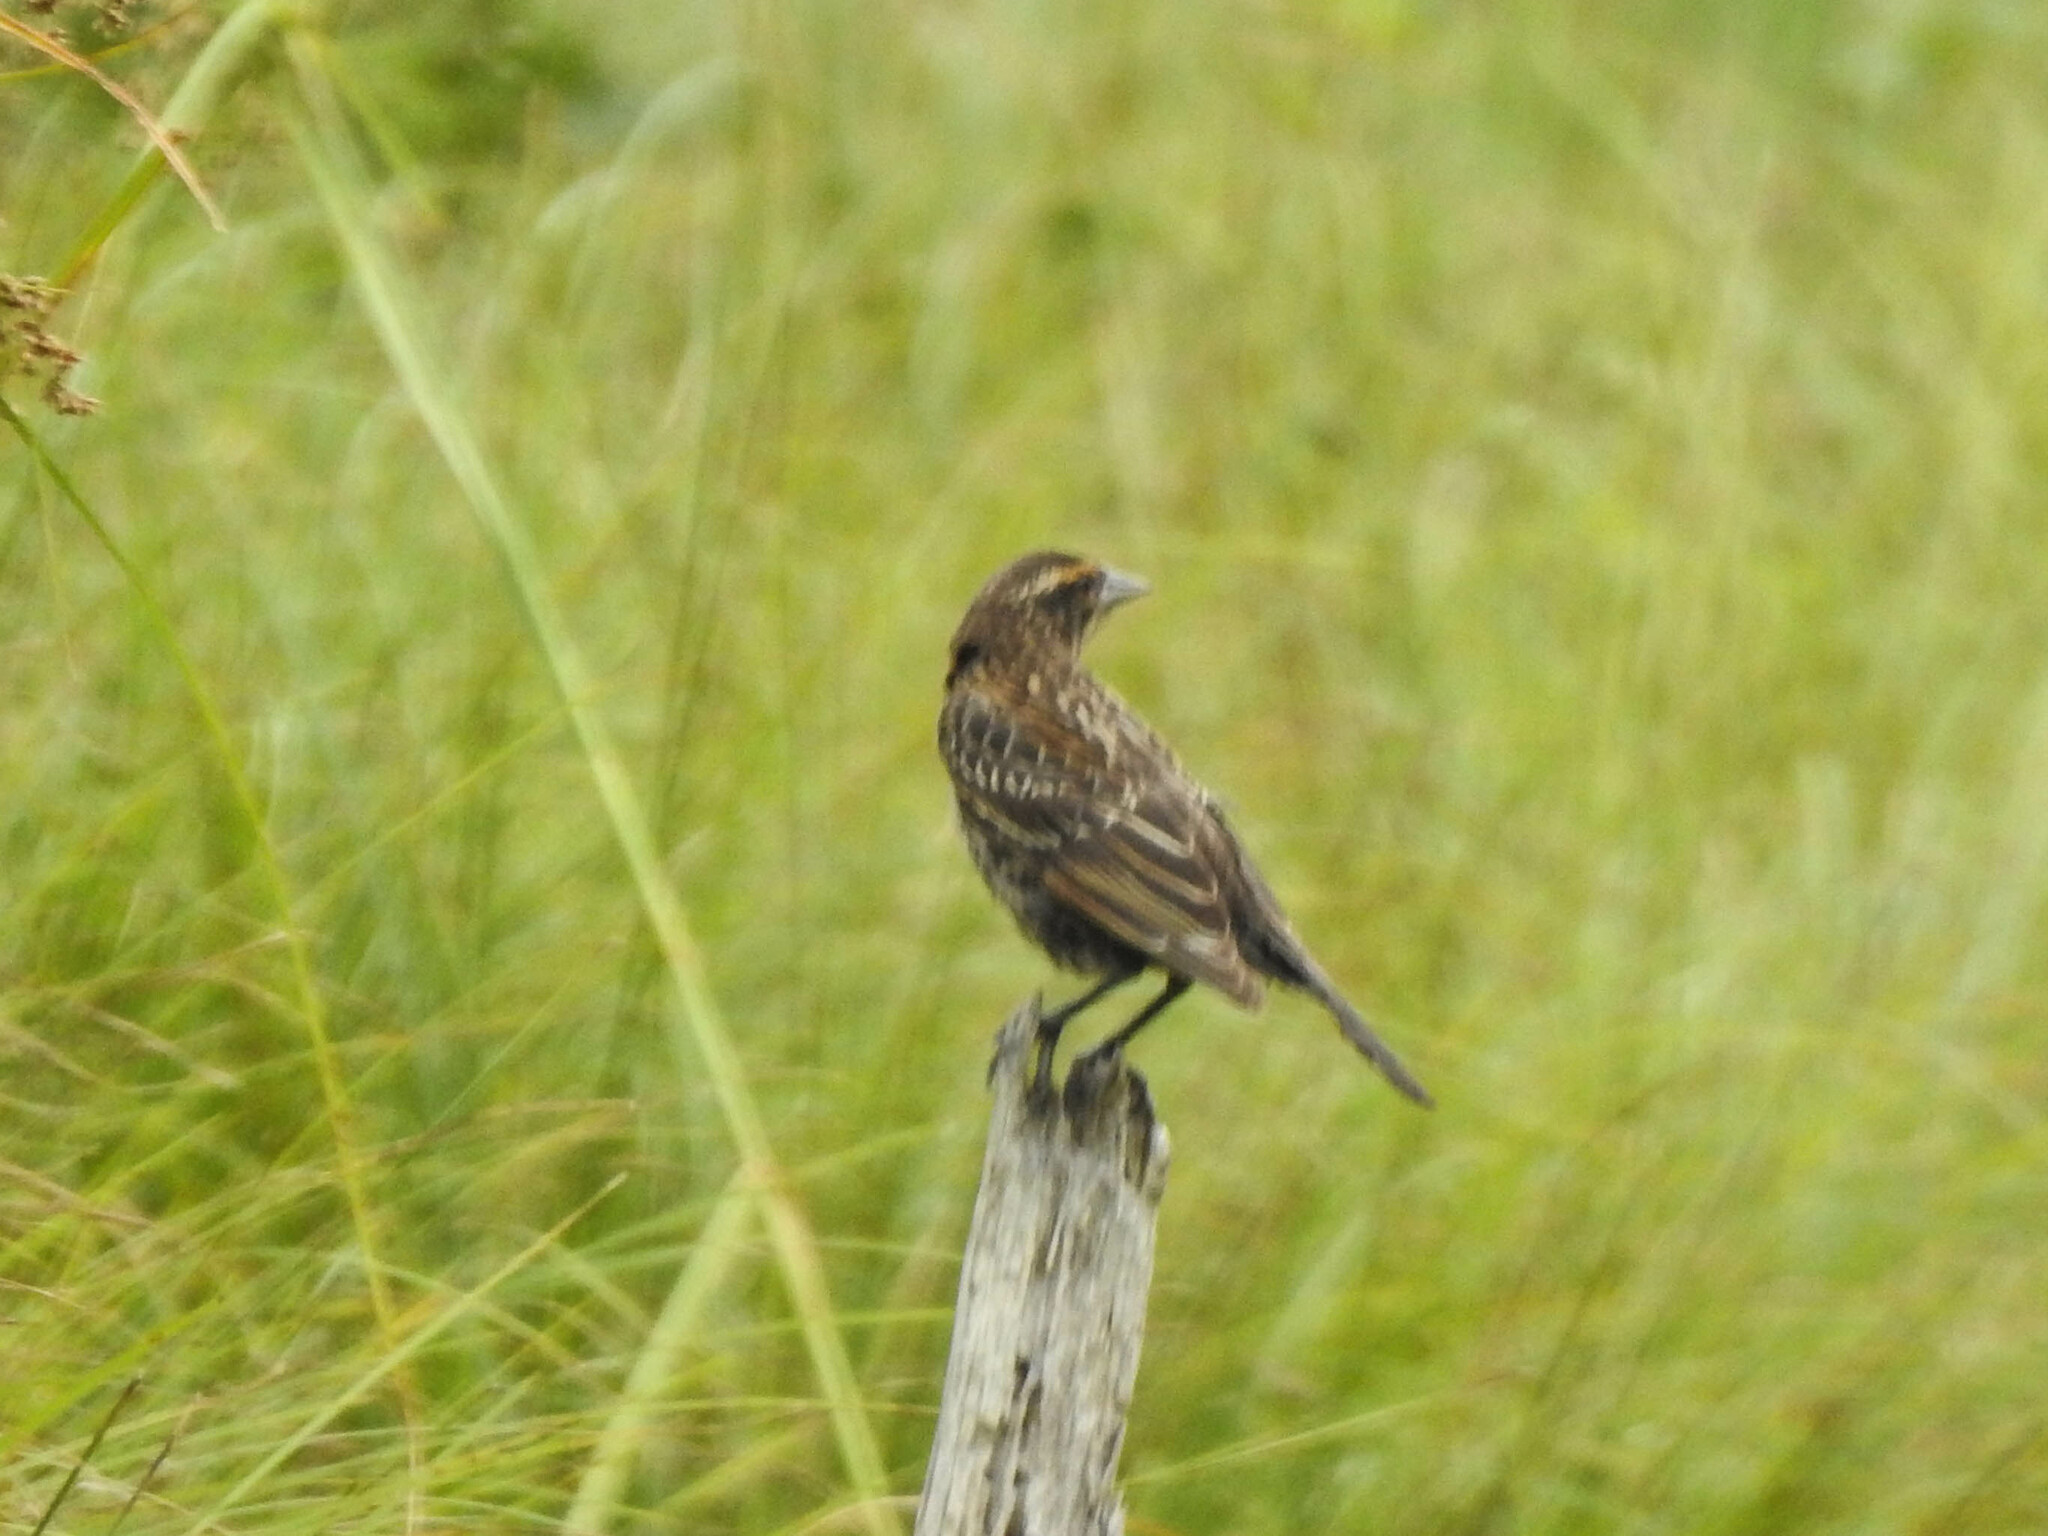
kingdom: Animalia
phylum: Chordata
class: Aves
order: Passeriformes
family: Icteridae
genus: Agelaius
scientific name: Agelaius phoeniceus
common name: Red-winged blackbird
